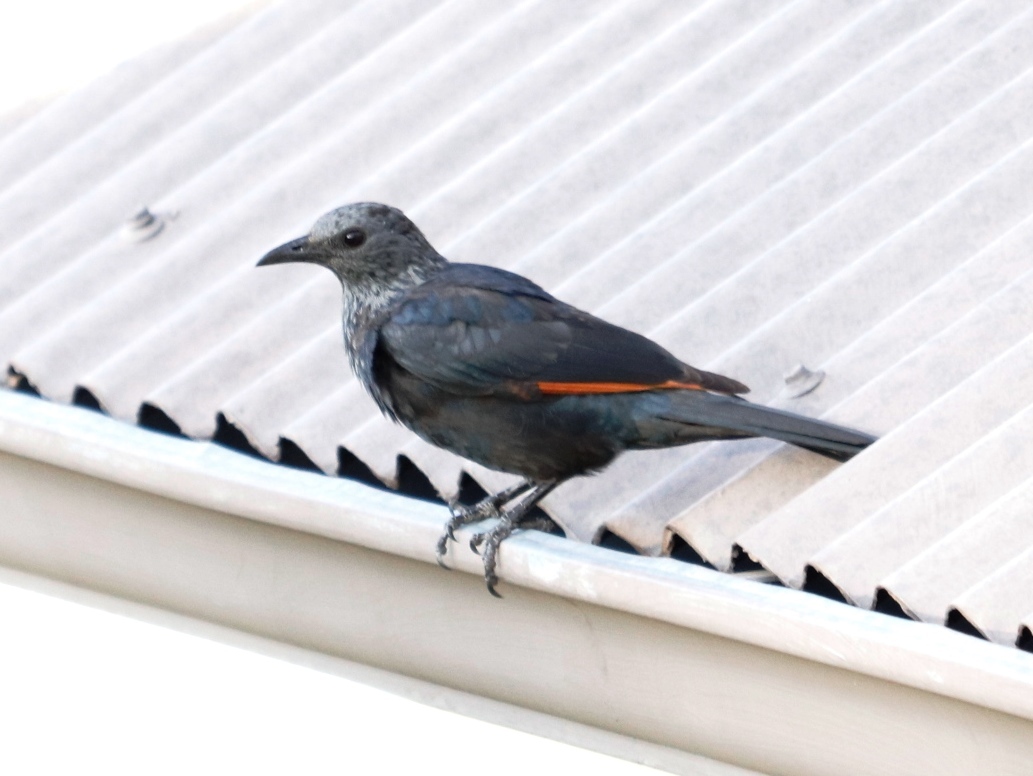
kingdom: Animalia
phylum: Chordata
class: Aves
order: Passeriformes
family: Sturnidae
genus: Onychognathus
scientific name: Onychognathus morio
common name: Red-winged starling
